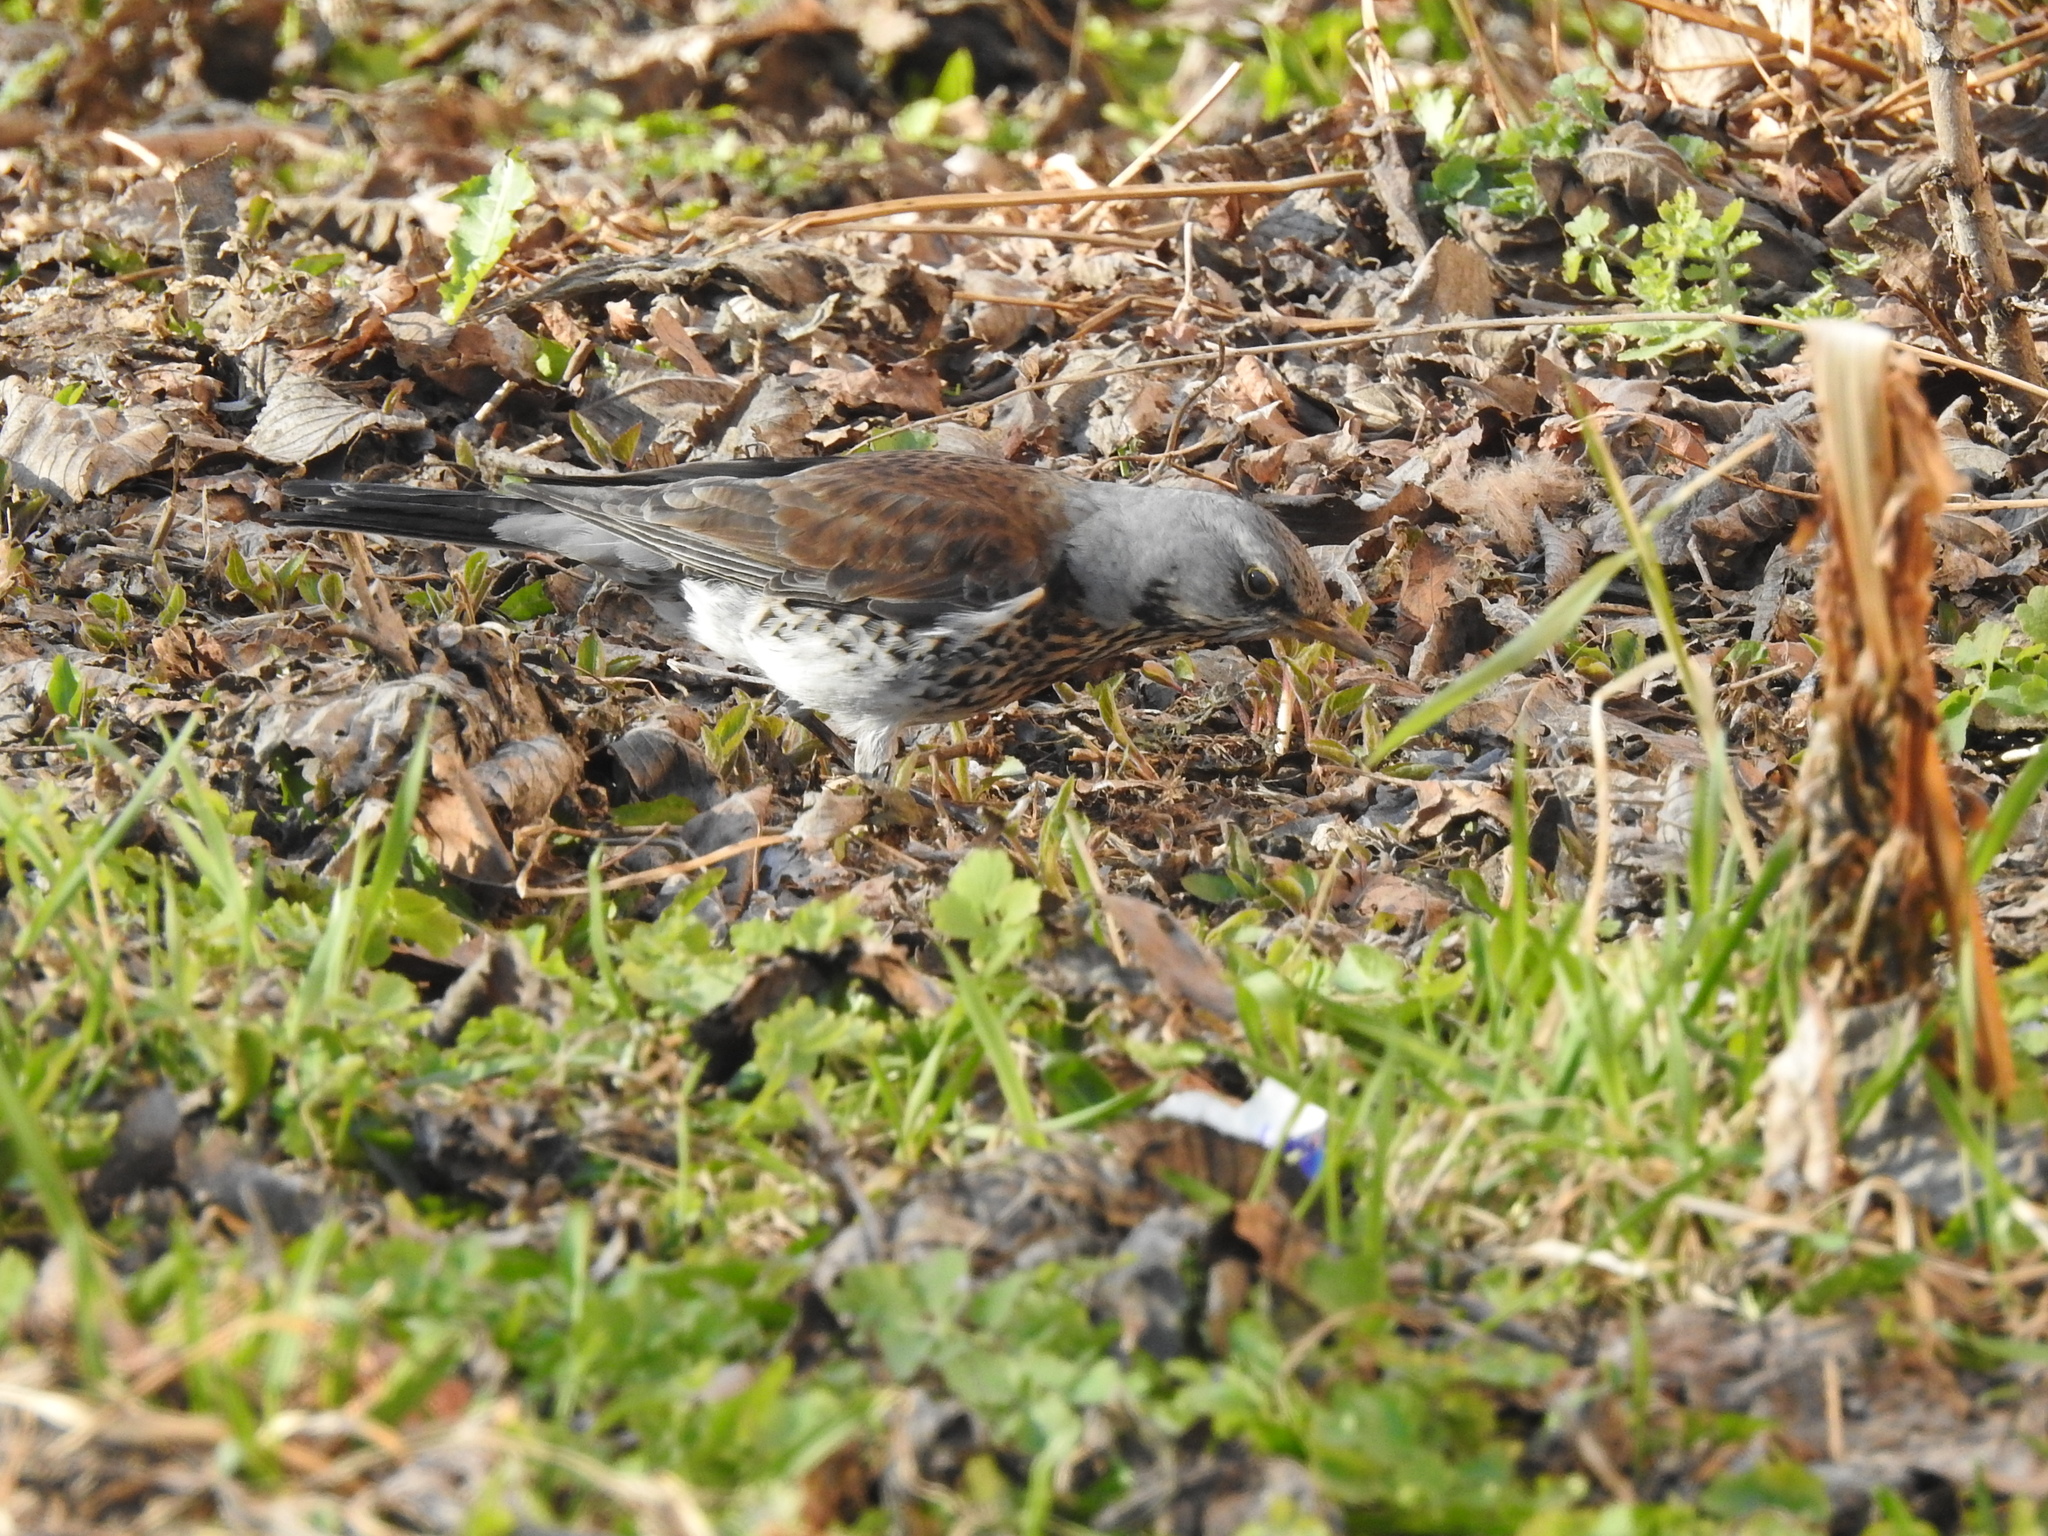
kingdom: Animalia
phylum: Chordata
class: Aves
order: Passeriformes
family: Turdidae
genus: Turdus
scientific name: Turdus pilaris
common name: Fieldfare
